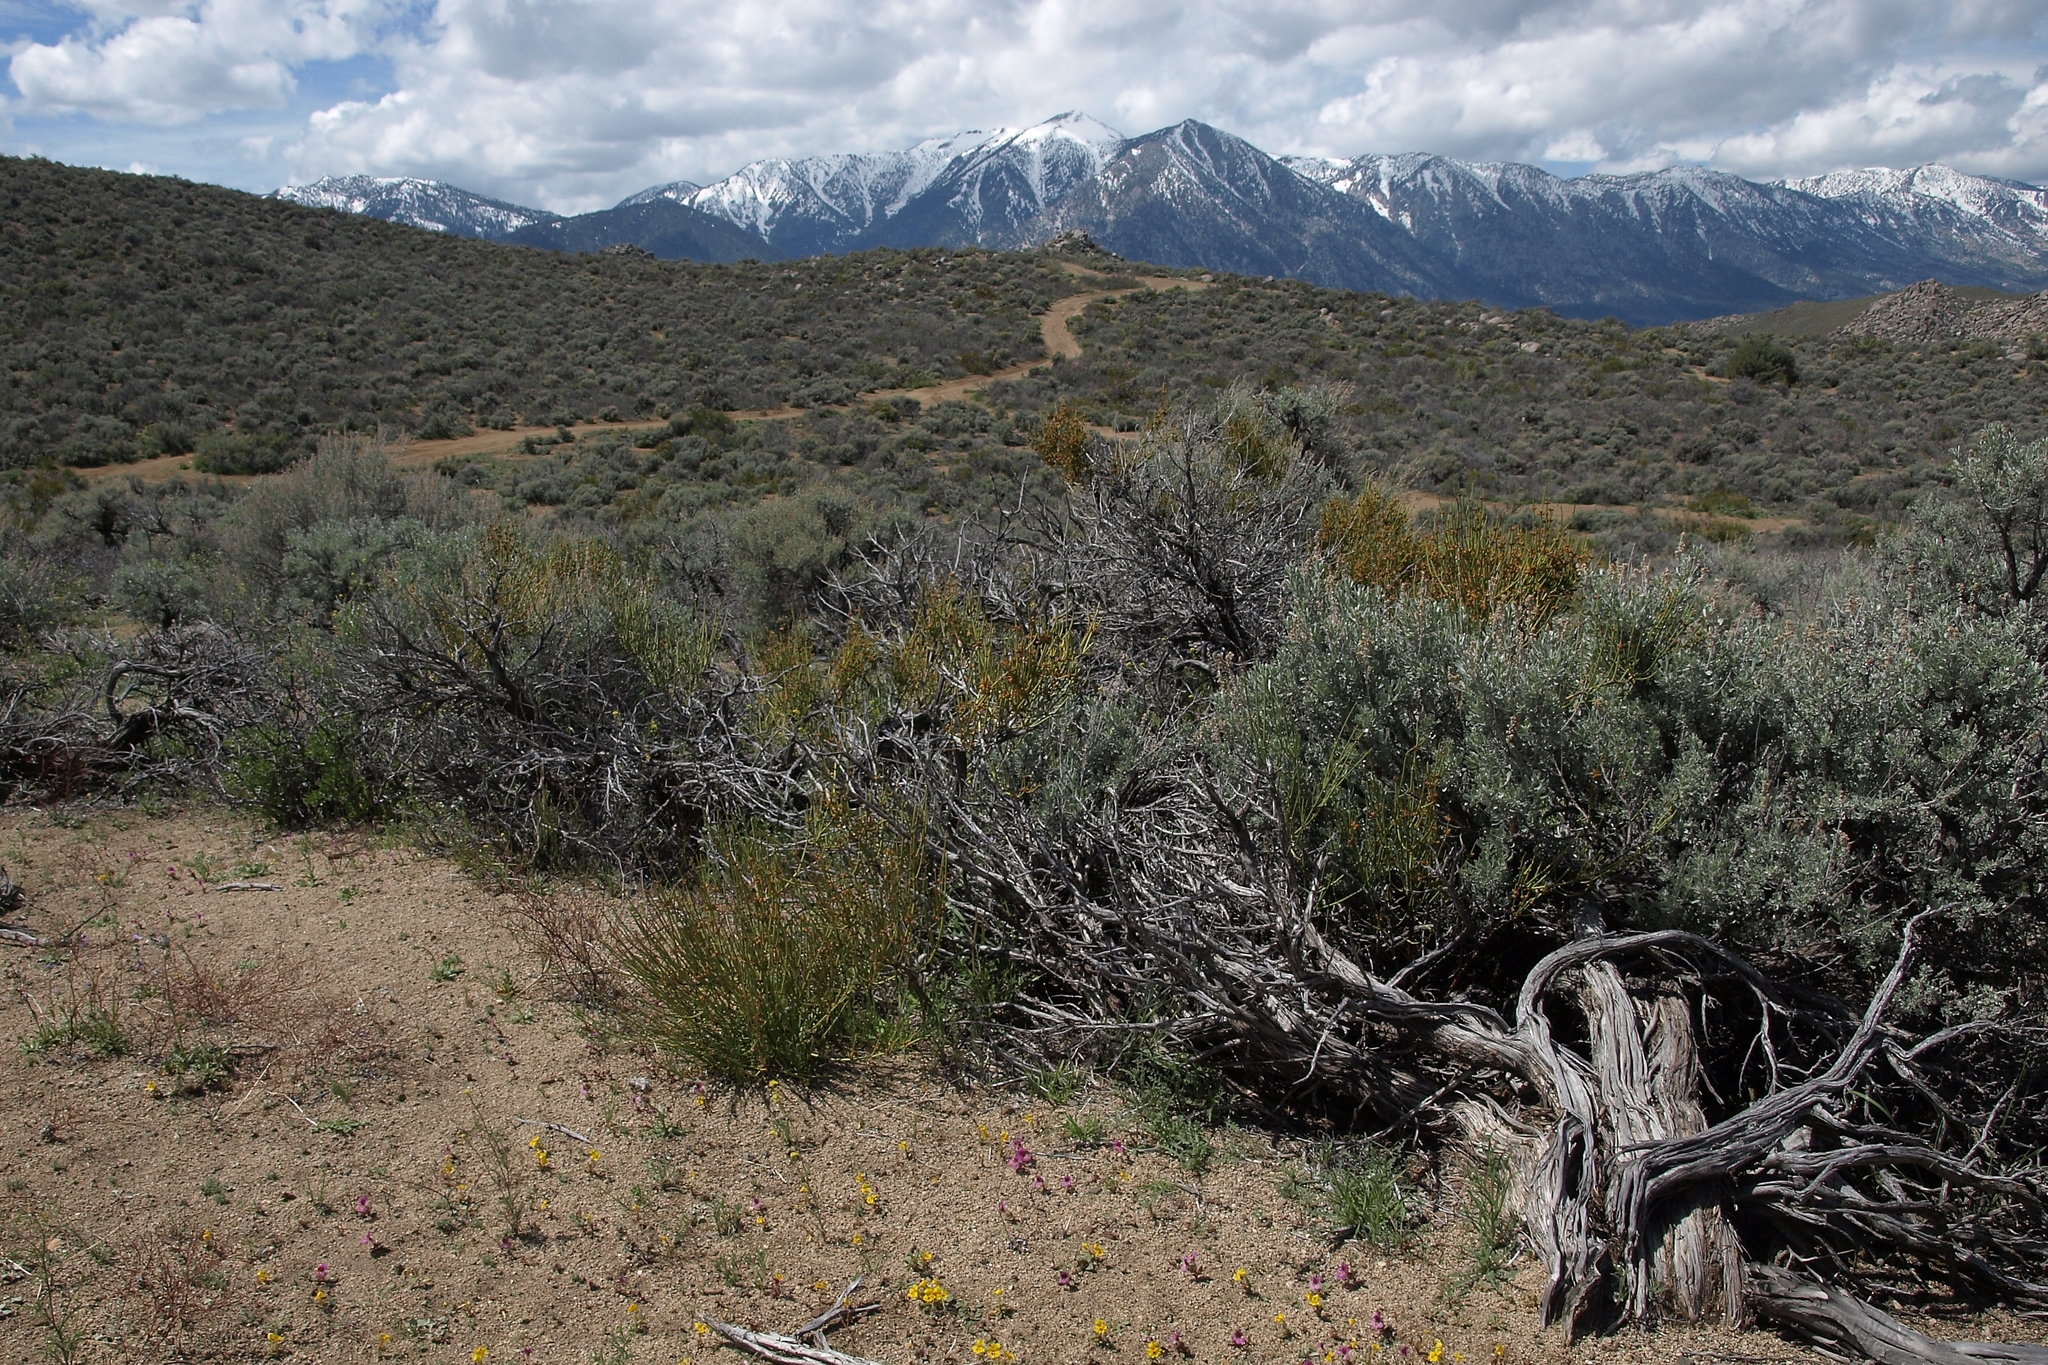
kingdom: Plantae
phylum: Tracheophyta
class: Magnoliopsida
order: Lamiales
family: Phrymaceae
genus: Erythranthe
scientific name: Erythranthe carsonensis
